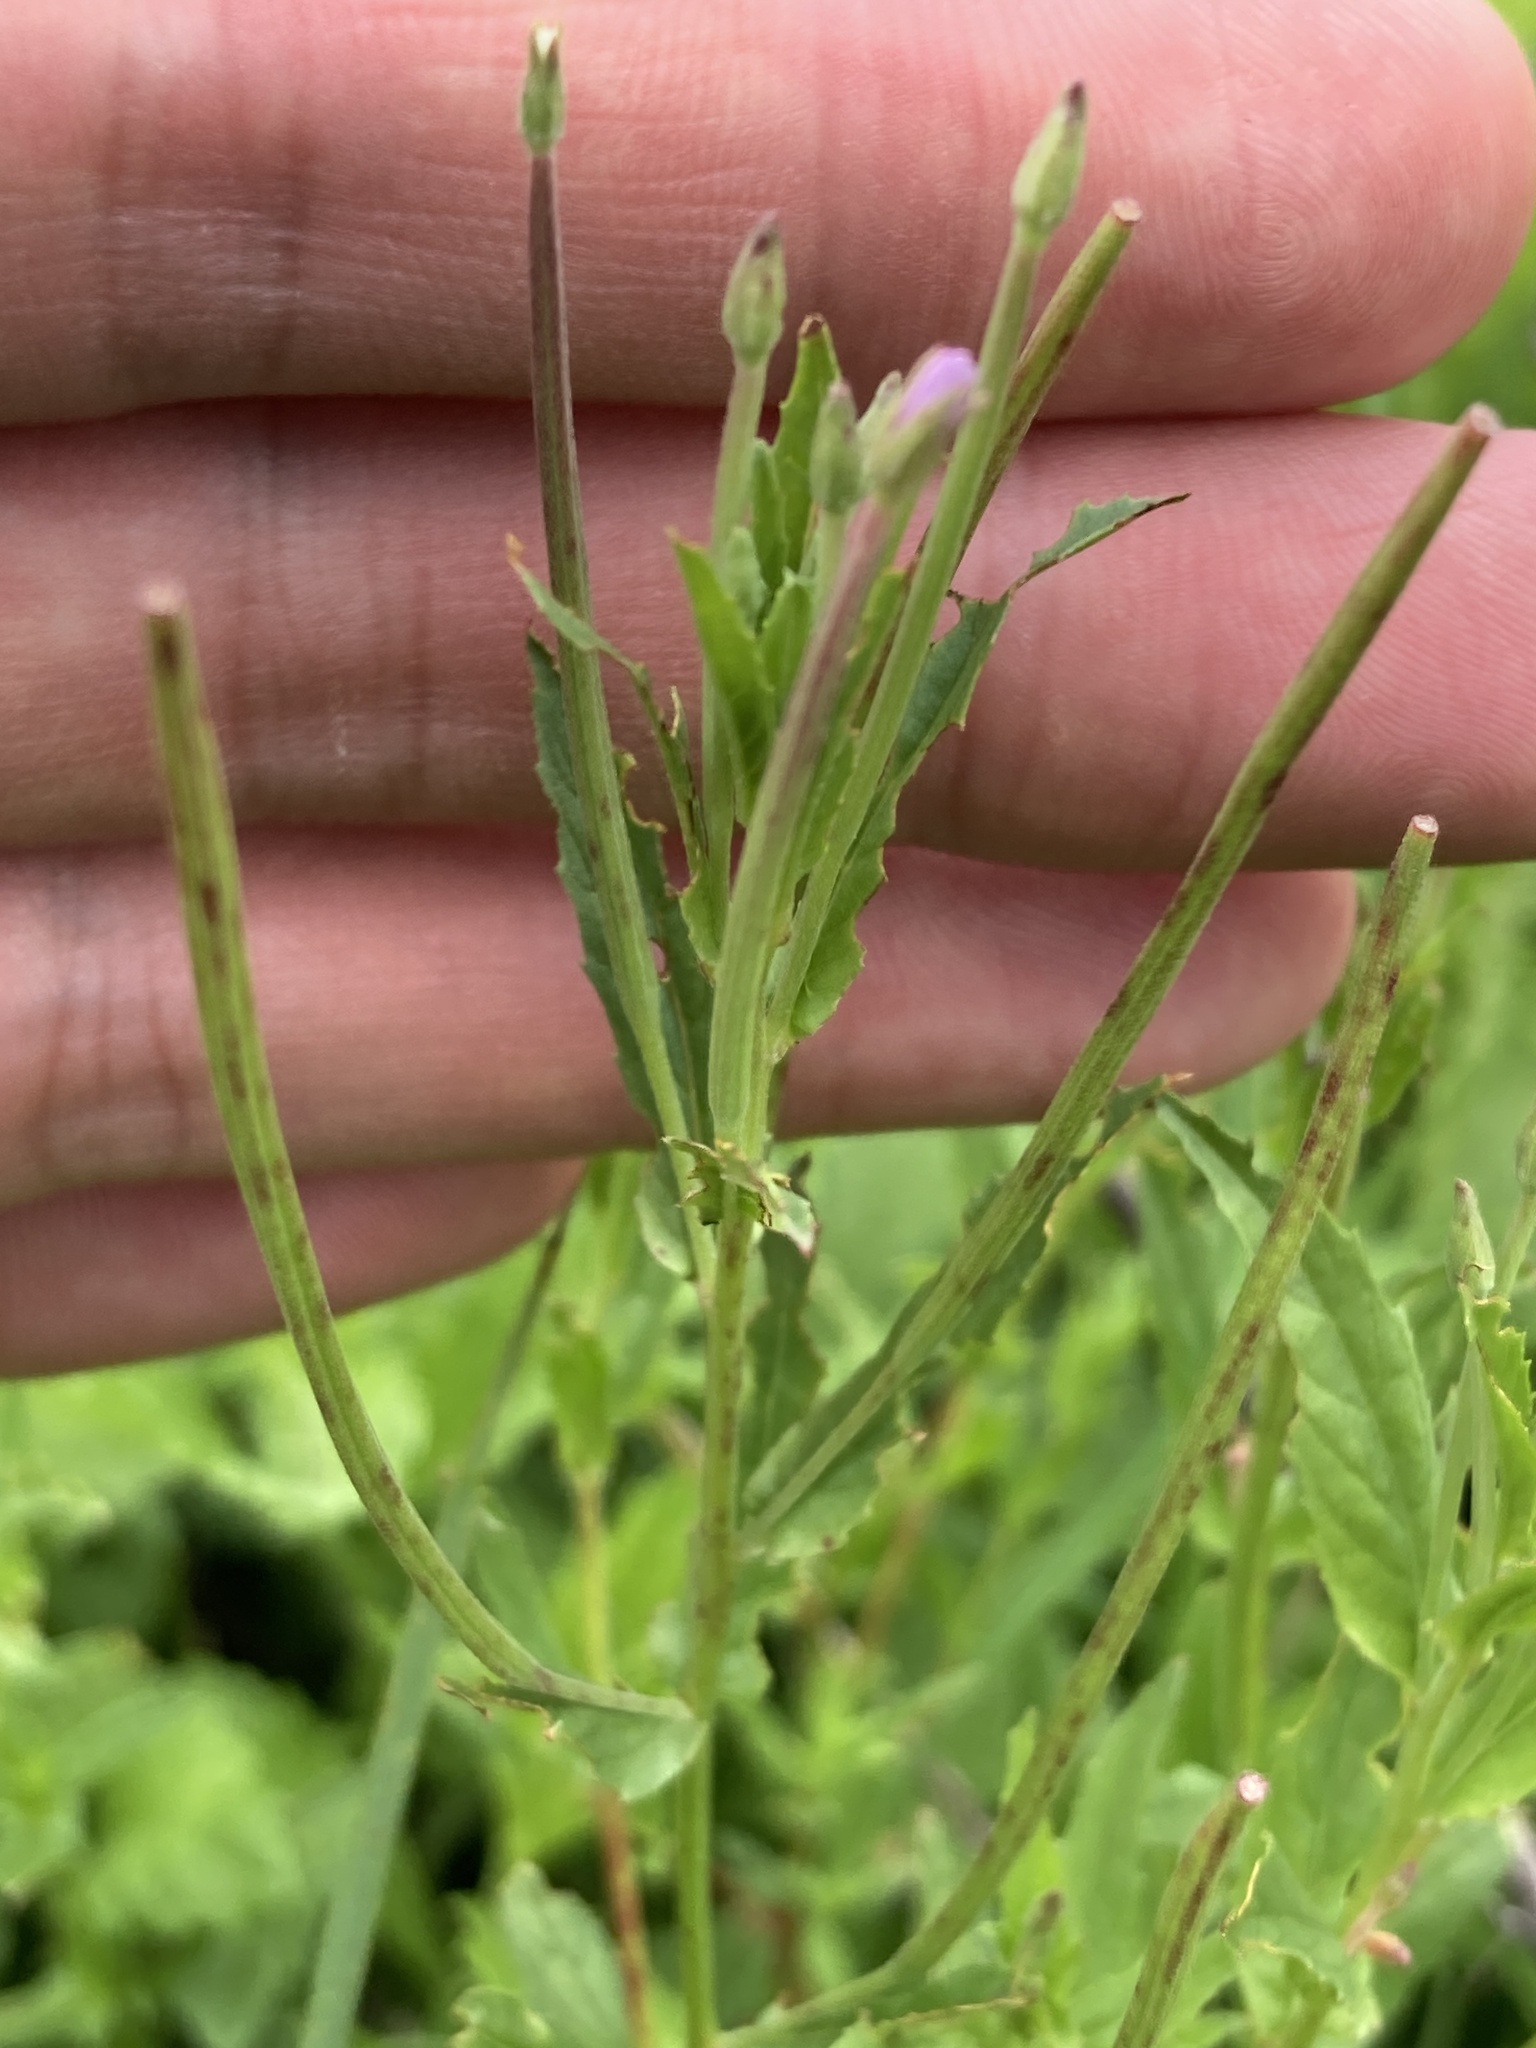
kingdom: Plantae
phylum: Tracheophyta
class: Magnoliopsida
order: Myrtales
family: Onagraceae
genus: Epilobium
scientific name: Epilobium tetragonum
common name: Square-stemmed willowherb
